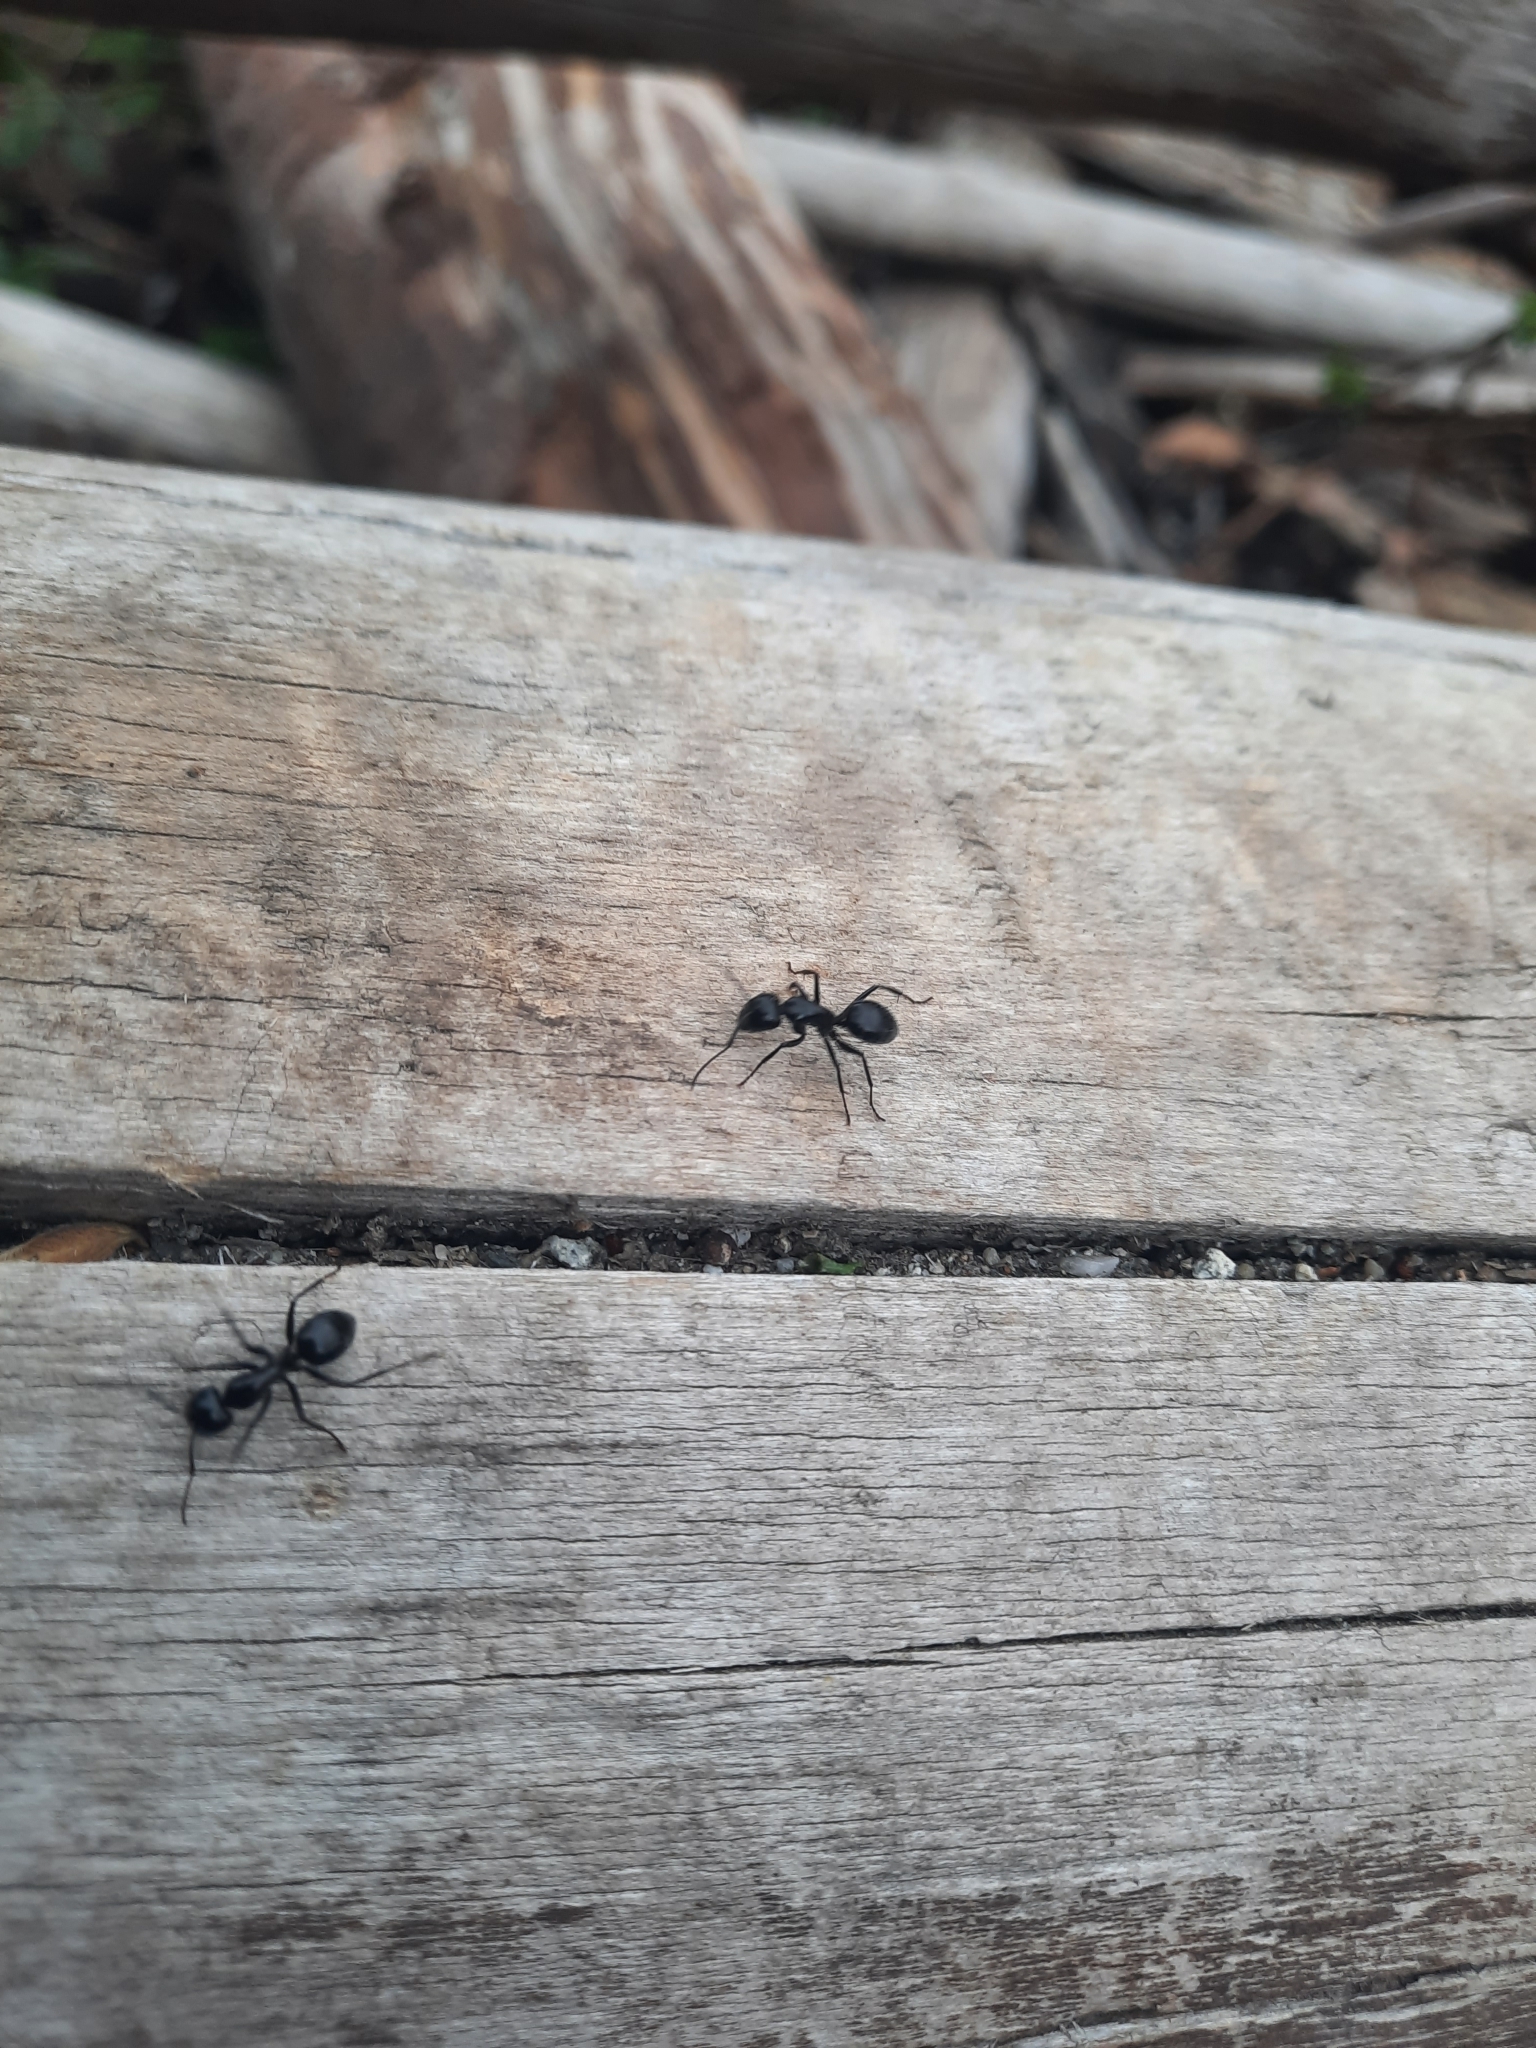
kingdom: Animalia
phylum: Arthropoda
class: Insecta
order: Hymenoptera
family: Formicidae
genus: Camponotus
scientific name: Camponotus
